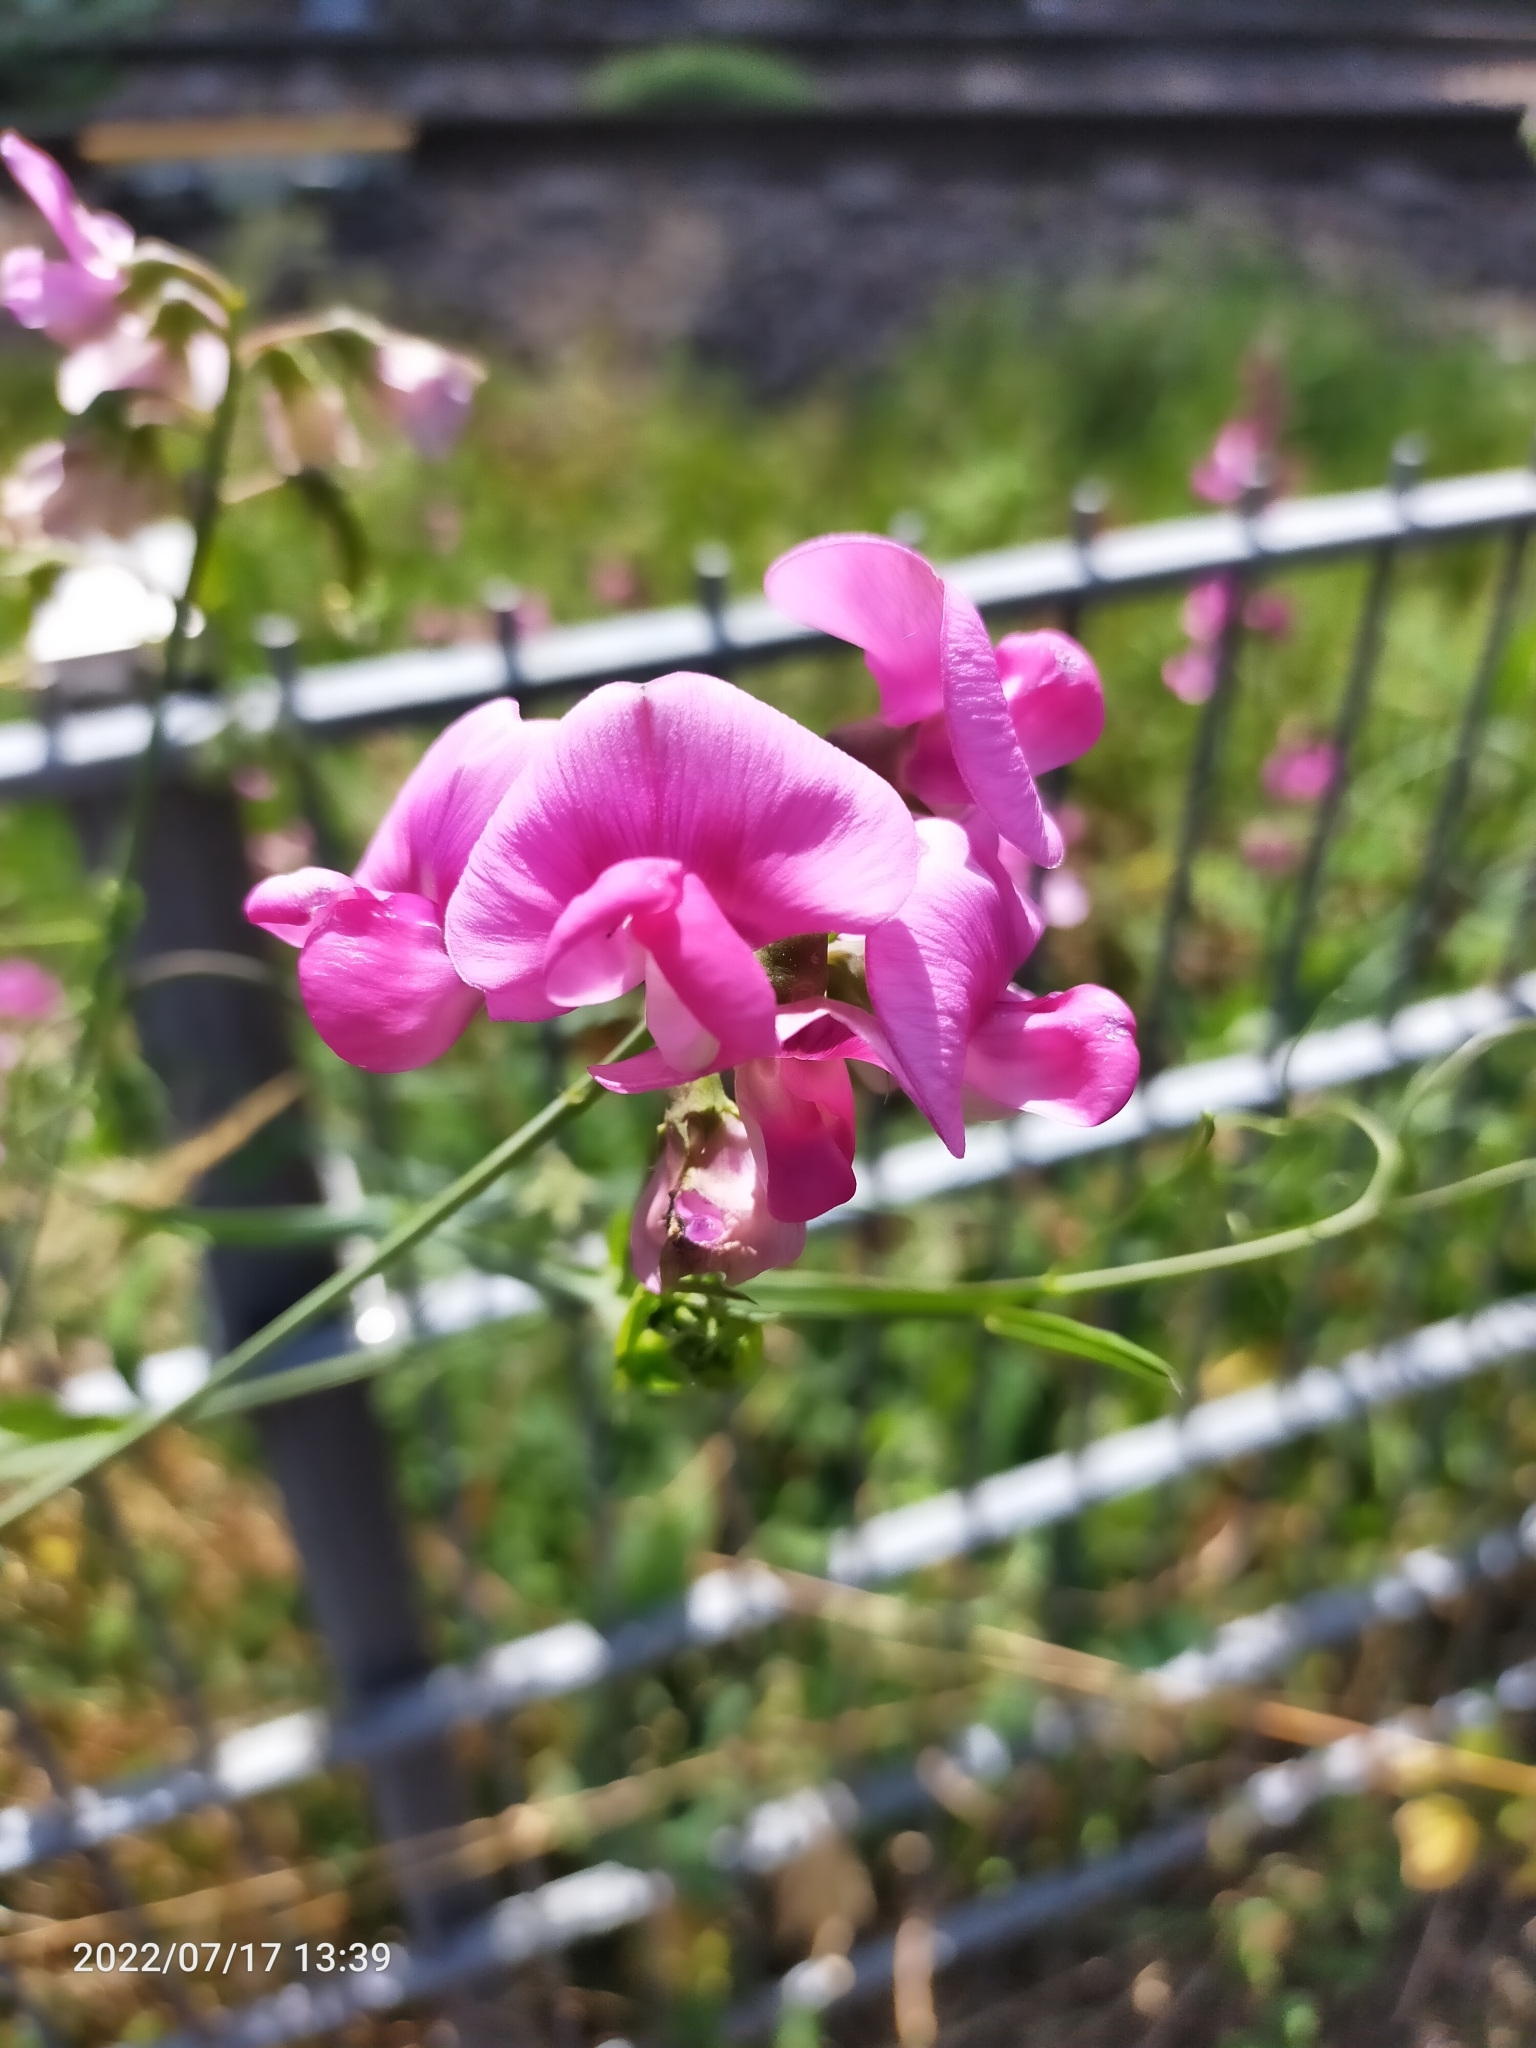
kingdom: Plantae
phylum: Tracheophyta
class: Magnoliopsida
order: Fabales
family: Fabaceae
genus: Lathyrus
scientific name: Lathyrus latifolius
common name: Perennial pea
